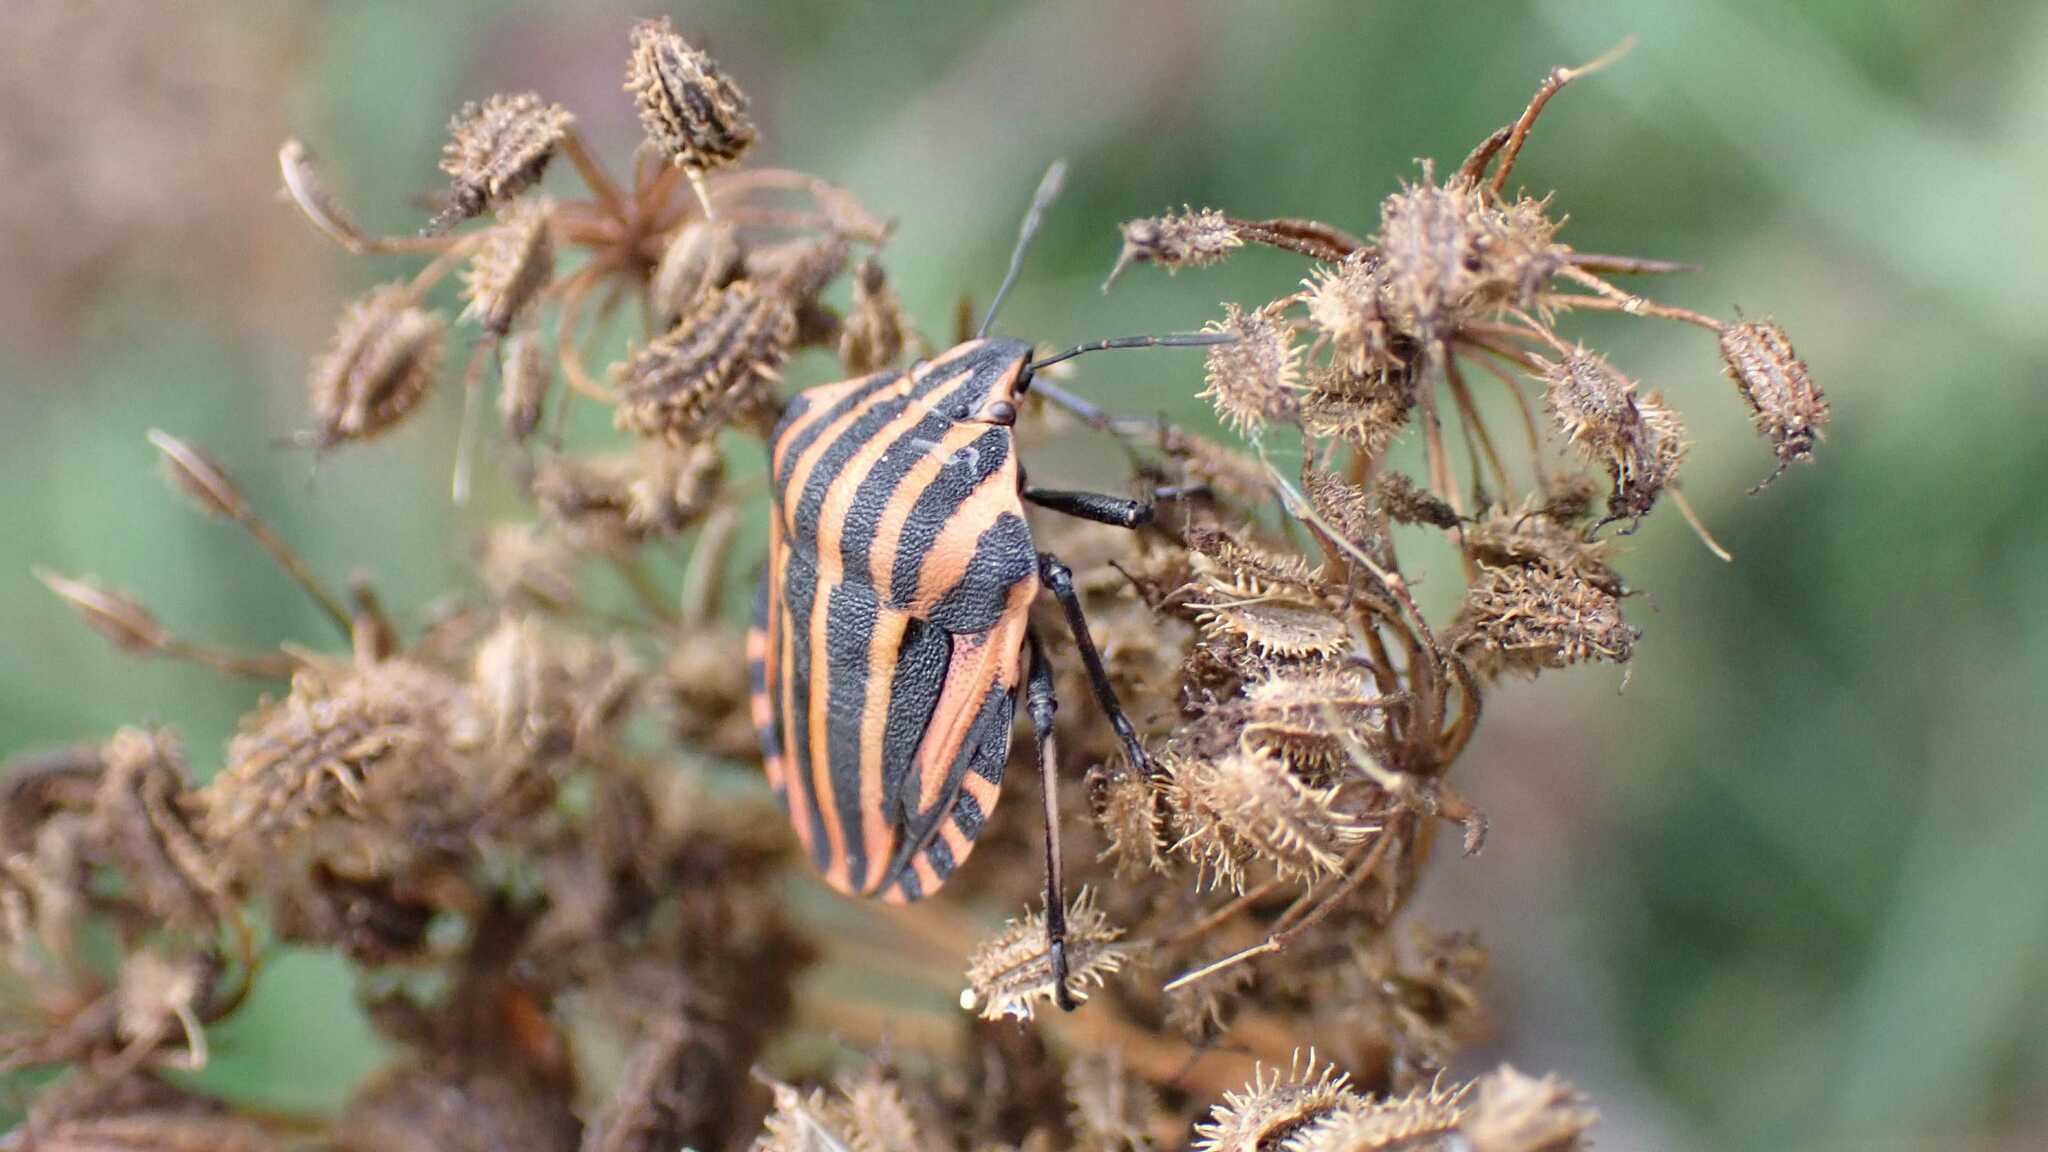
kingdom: Animalia
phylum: Arthropoda
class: Insecta
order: Hemiptera
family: Pentatomidae
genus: Graphosoma
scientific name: Graphosoma italicum
